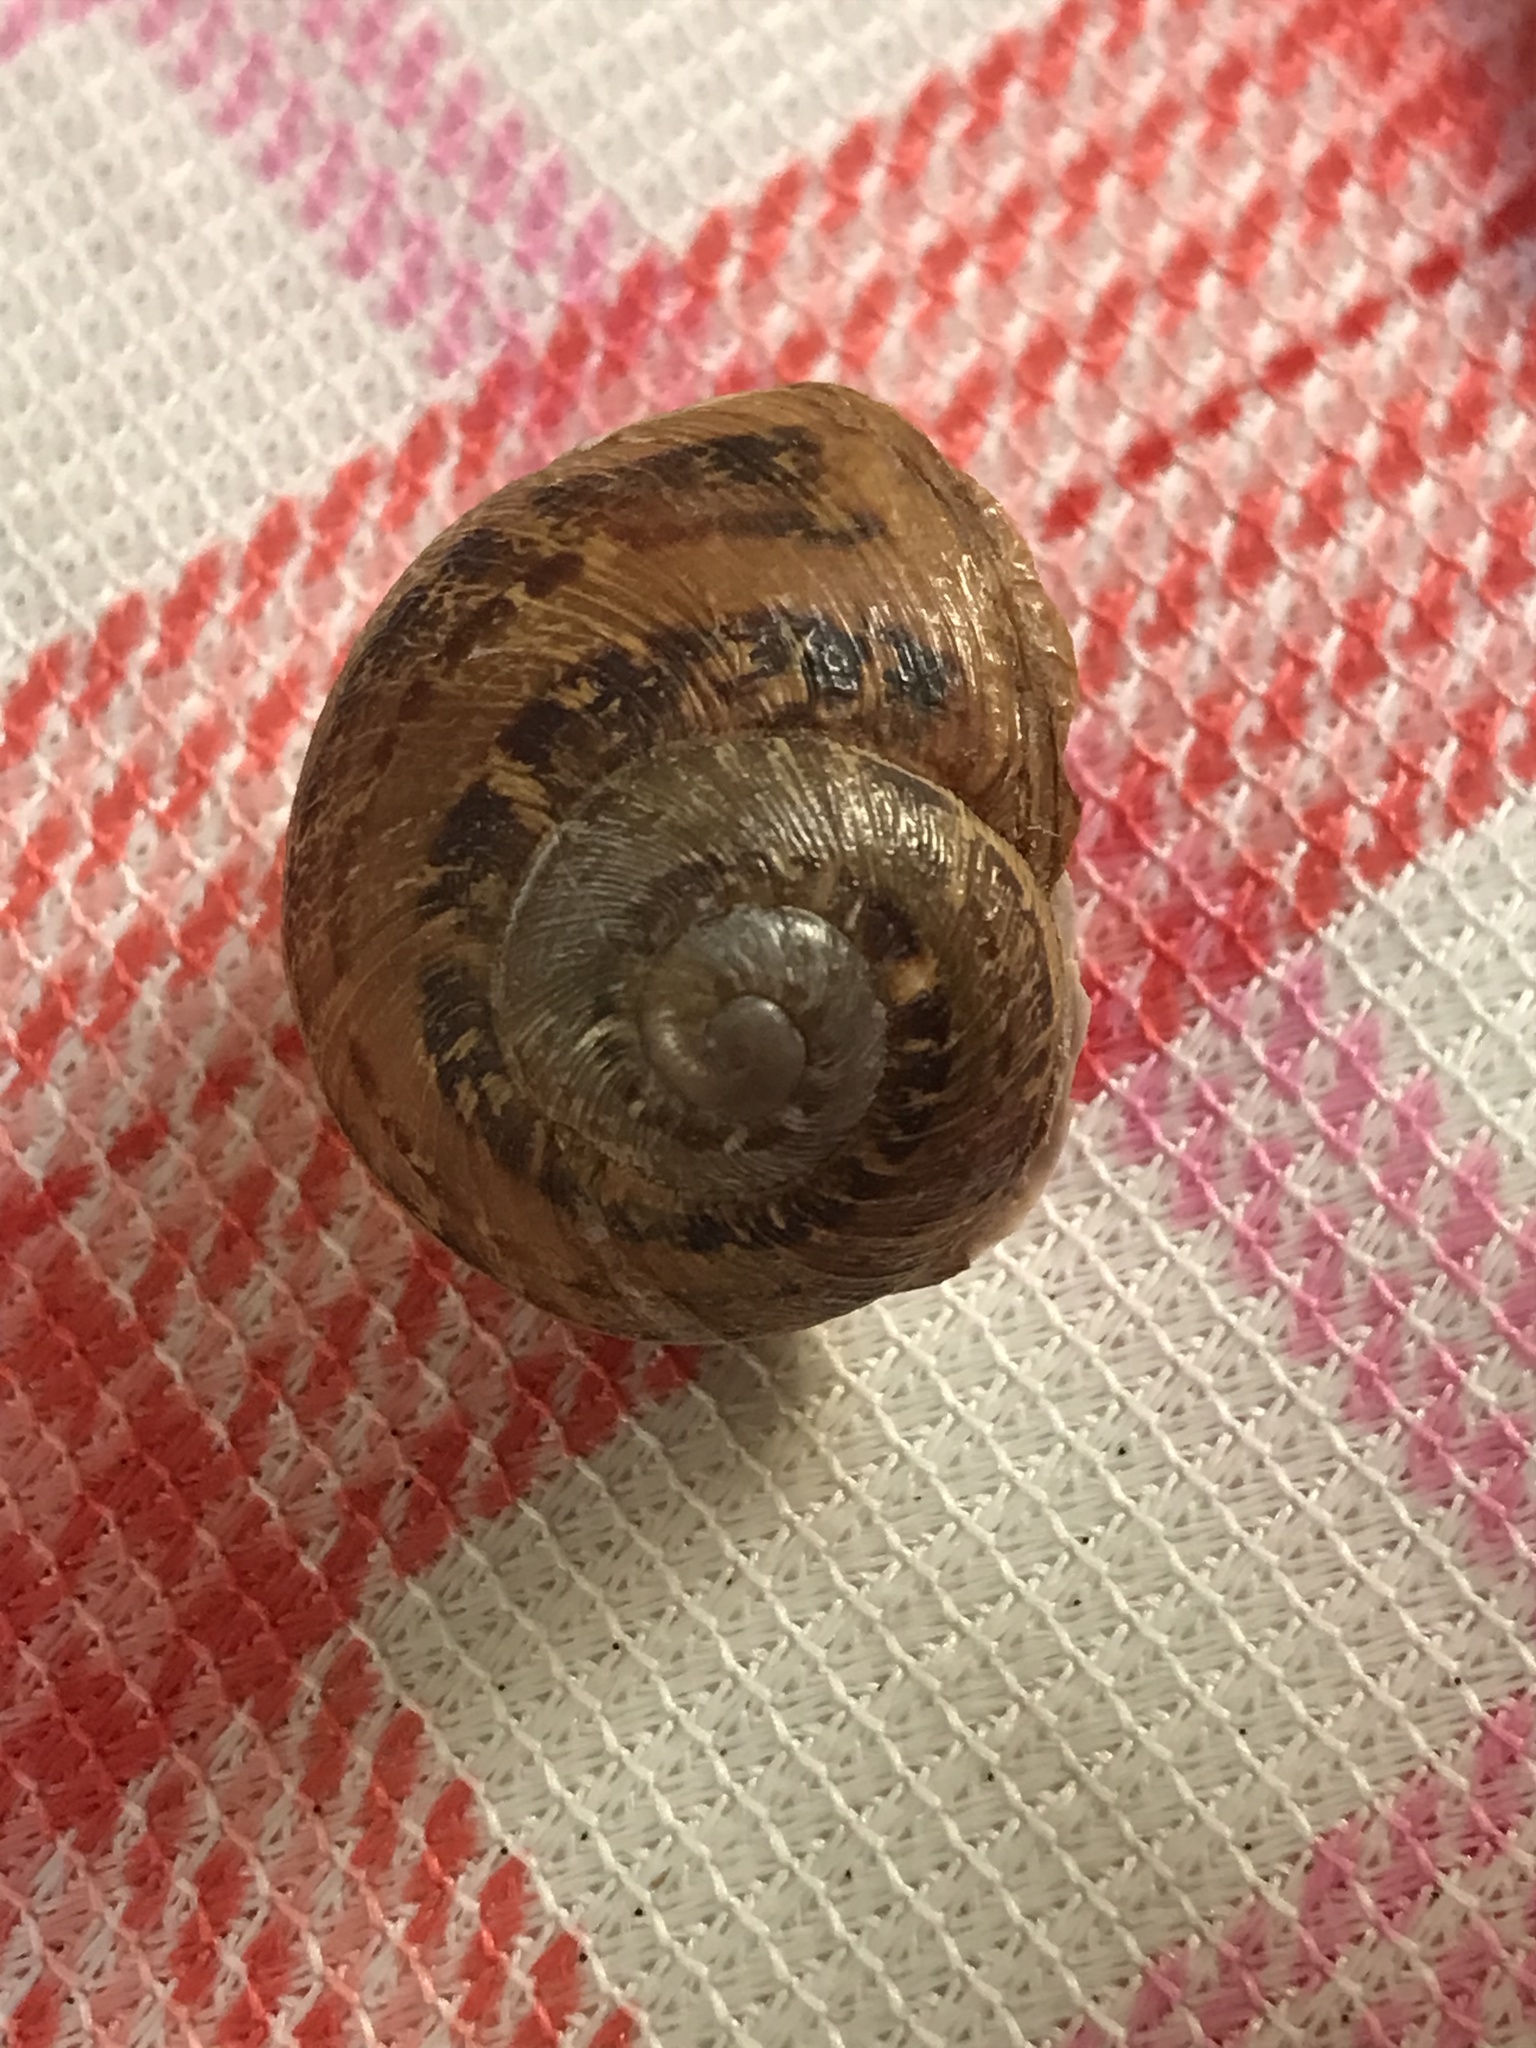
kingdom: Animalia
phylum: Mollusca
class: Gastropoda
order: Stylommatophora
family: Helicidae
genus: Cornu
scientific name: Cornu aspersum
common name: Brown garden snail
